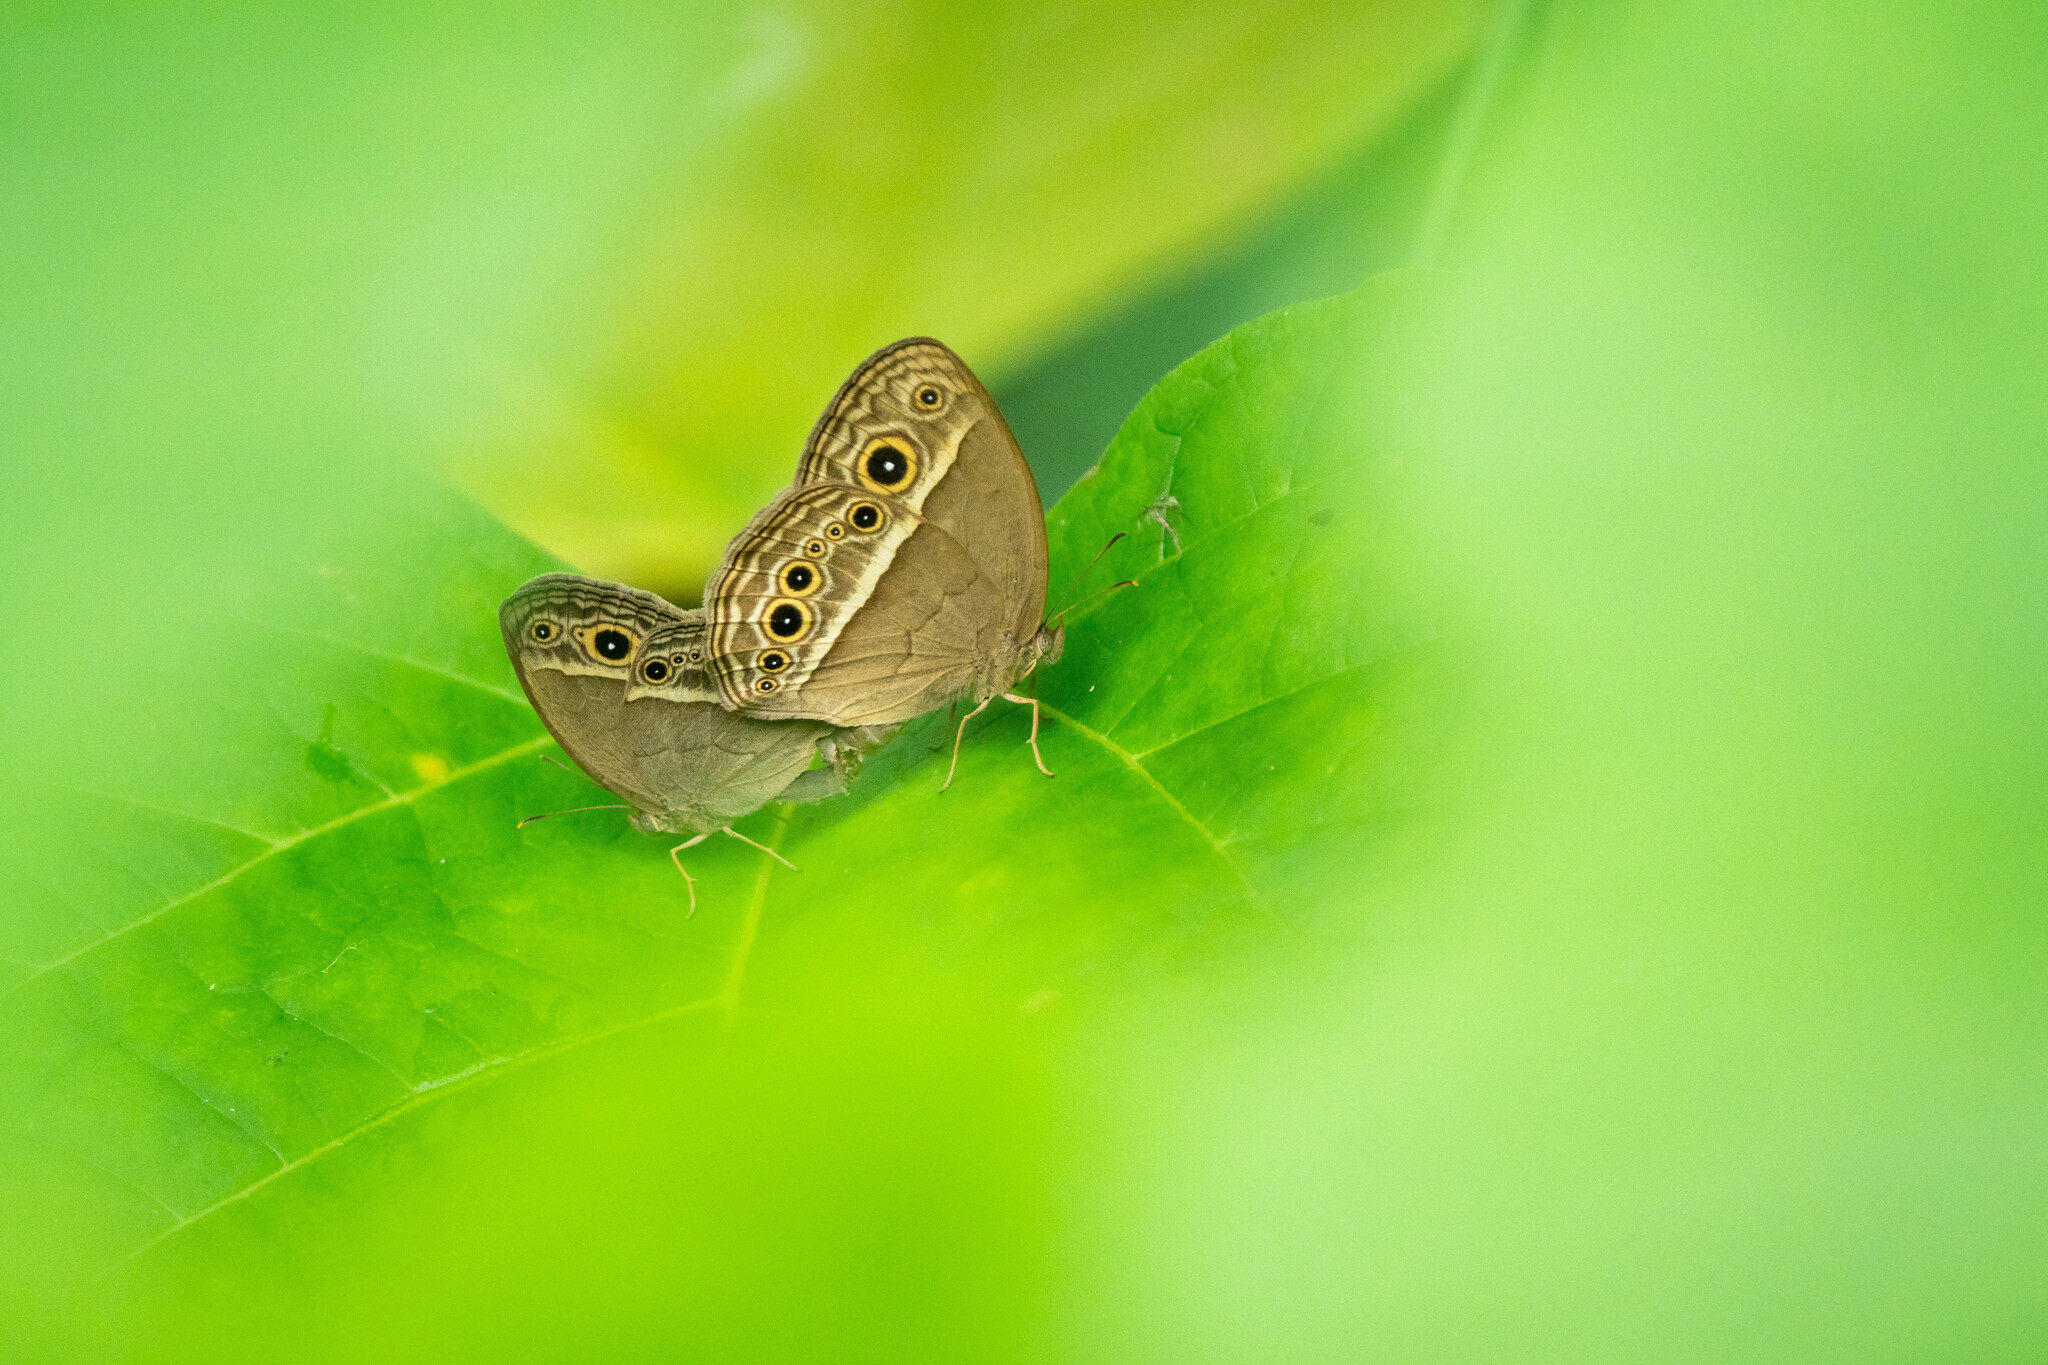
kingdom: Animalia
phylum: Arthropoda
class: Insecta
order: Lepidoptera
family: Nymphalidae
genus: Mycalesis
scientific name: Mycalesis mineus
